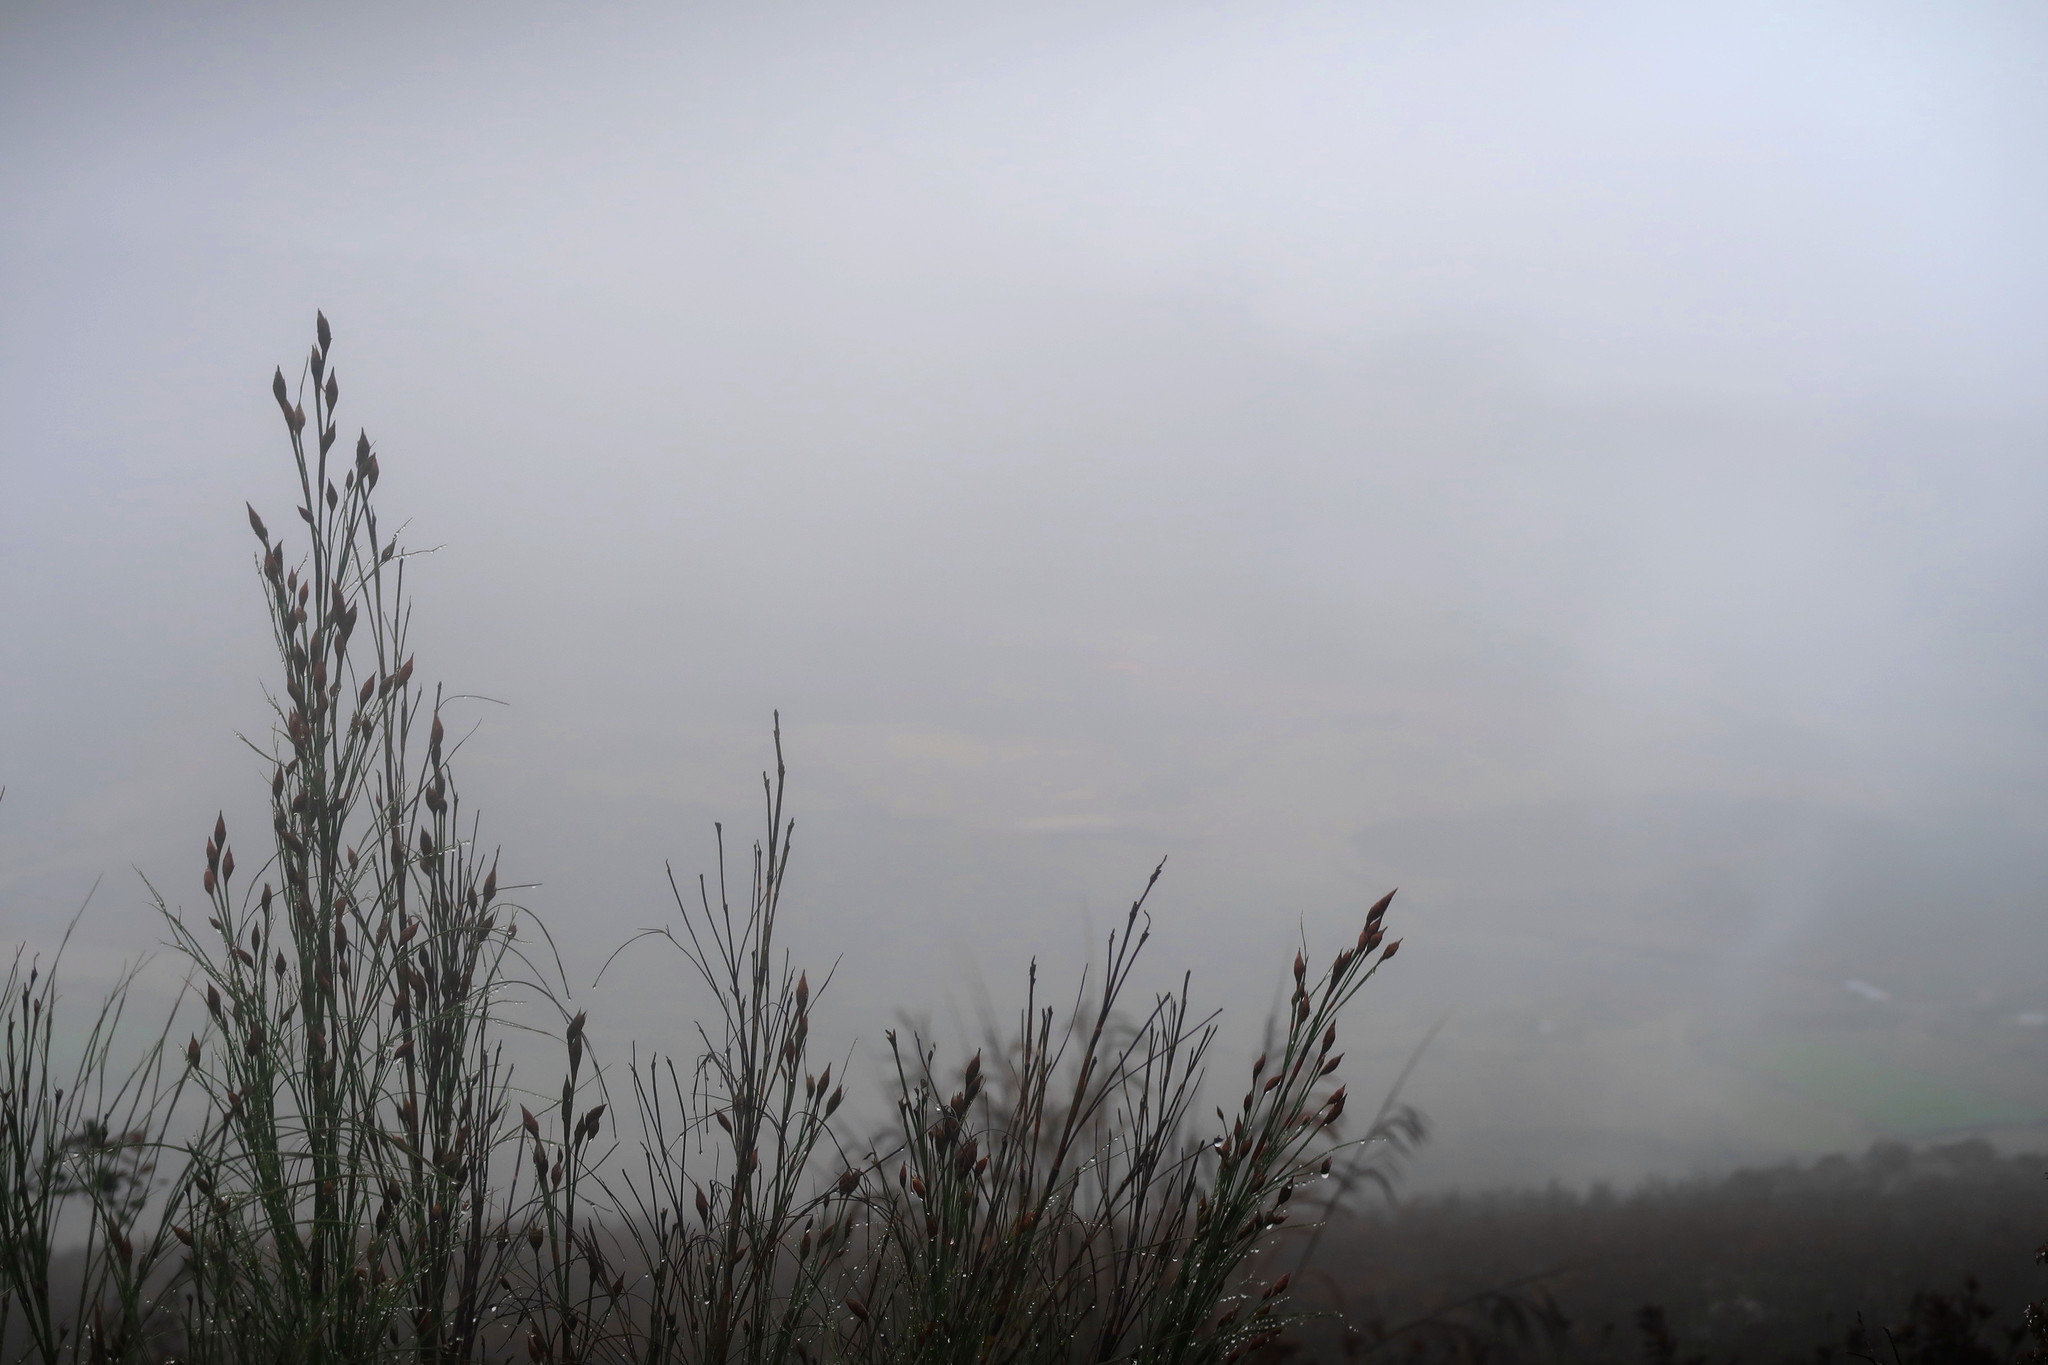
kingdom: Plantae
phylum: Tracheophyta
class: Liliopsida
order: Poales
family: Restionaceae
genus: Cannomois
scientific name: Cannomois grandis
